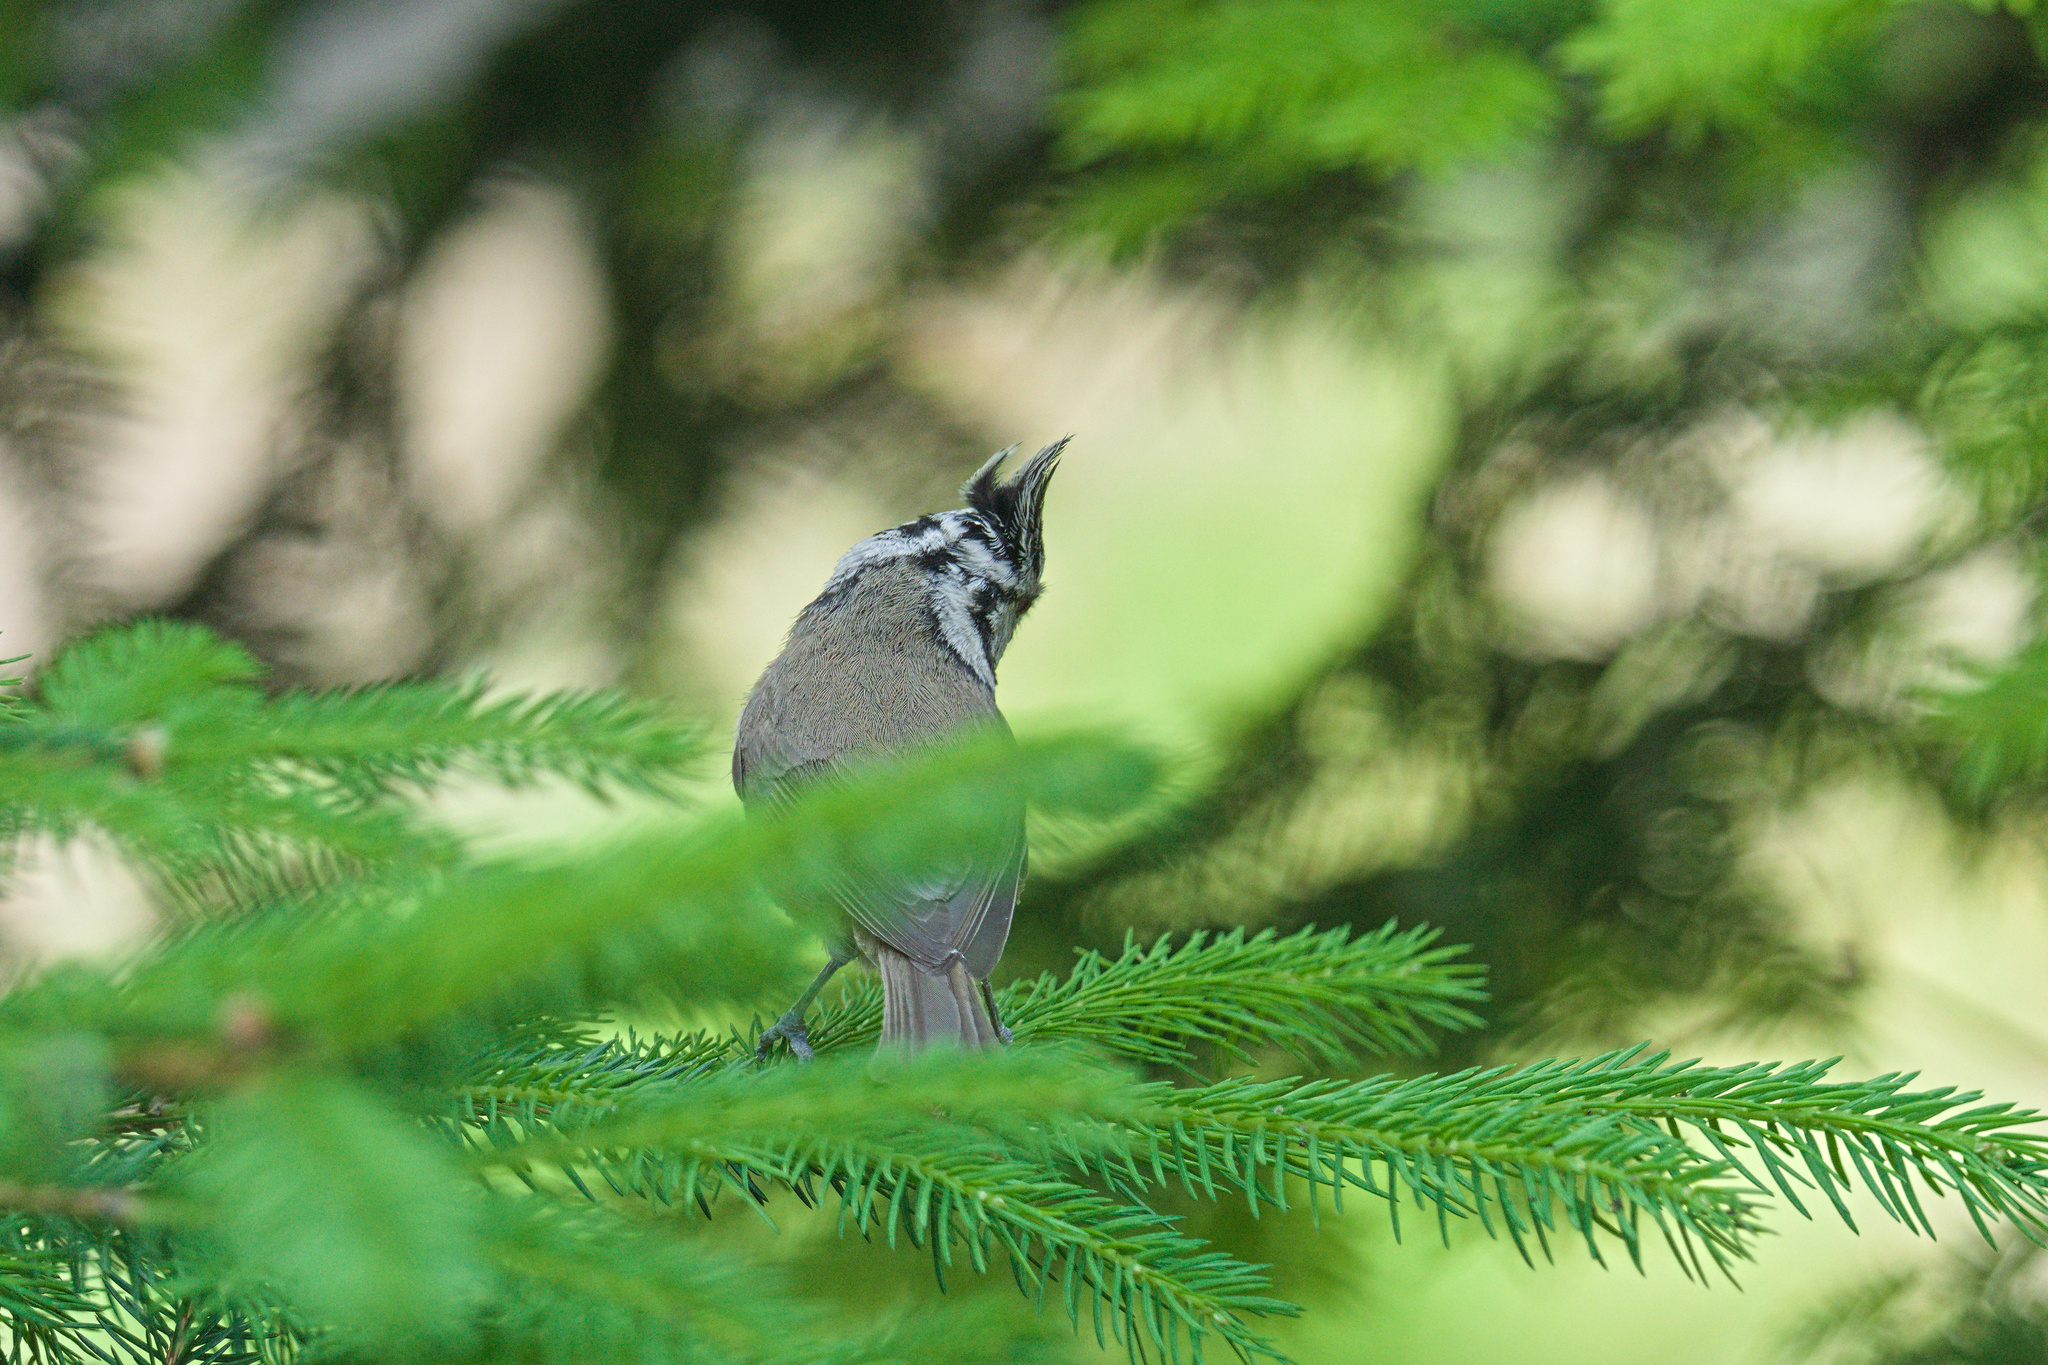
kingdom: Animalia
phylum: Chordata
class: Aves
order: Passeriformes
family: Paridae
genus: Lophophanes
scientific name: Lophophanes cristatus
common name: European crested tit
